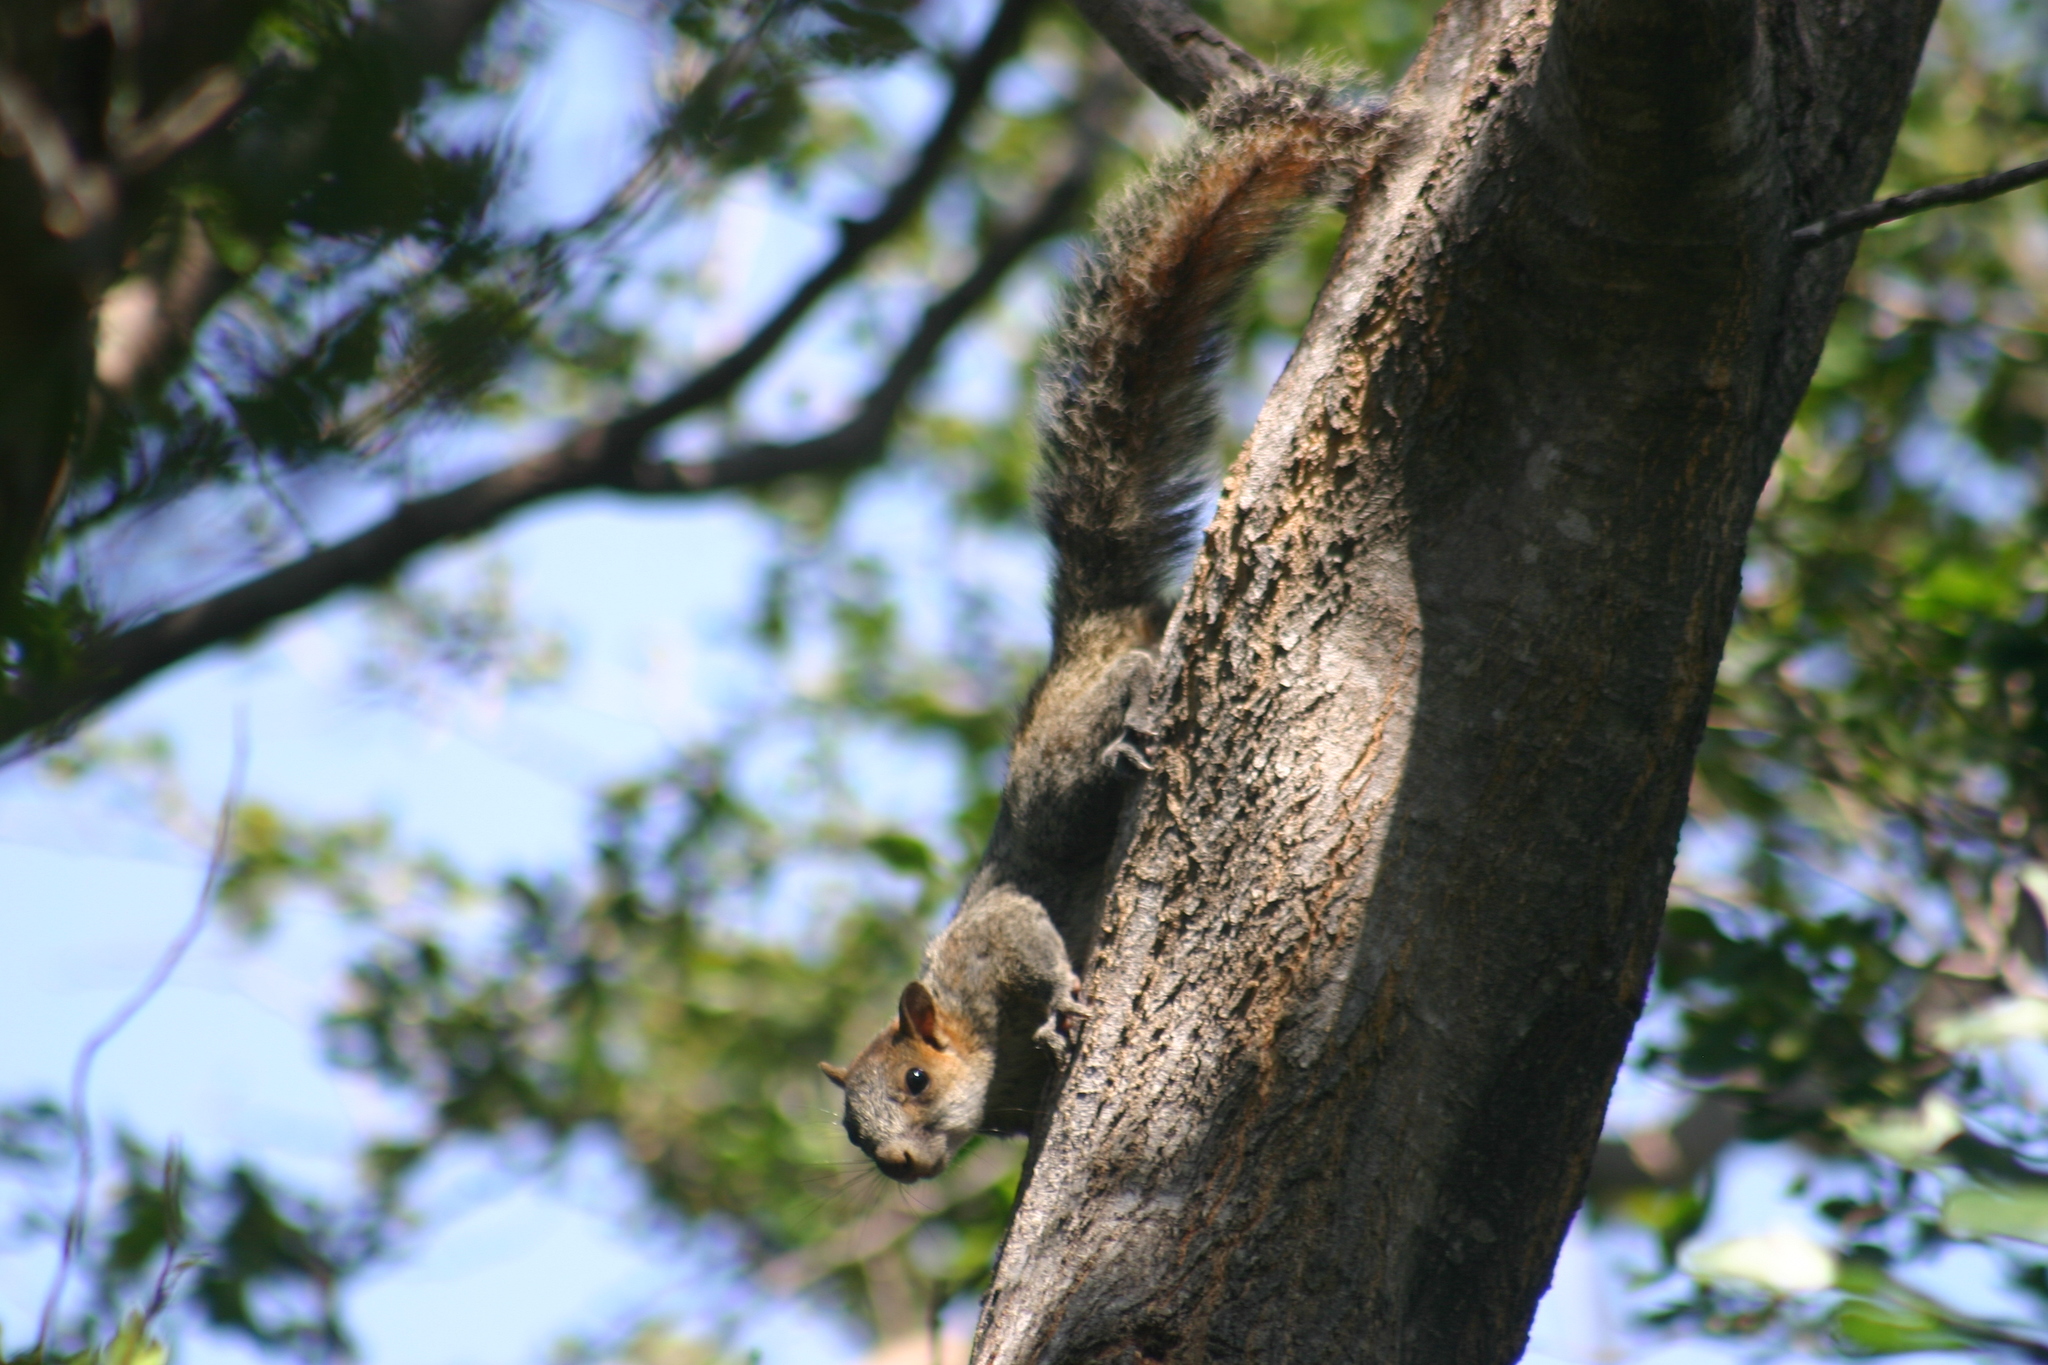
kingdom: Animalia
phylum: Chordata
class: Mammalia
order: Rodentia
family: Sciuridae
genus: Sciurus
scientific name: Sciurus aureogaster
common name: Red-bellied squirrel
